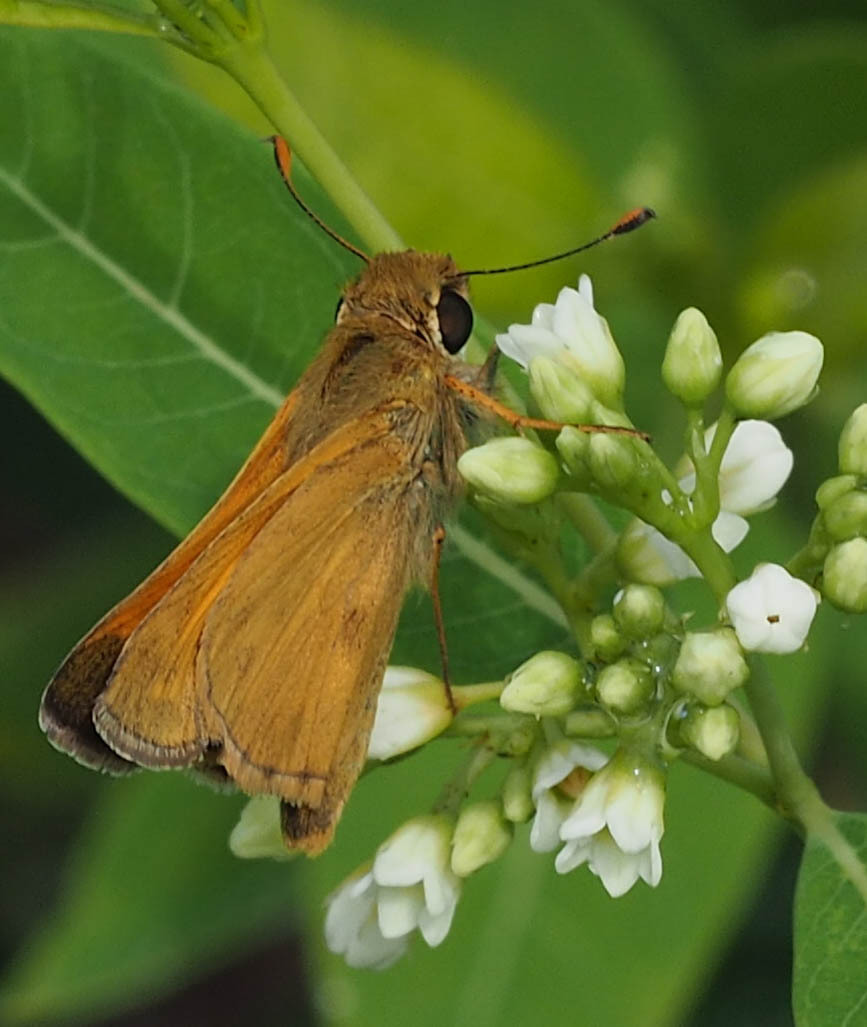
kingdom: Animalia
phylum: Arthropoda
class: Insecta
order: Lepidoptera
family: Hesperiidae
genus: Atalopedes
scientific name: Atalopedes
